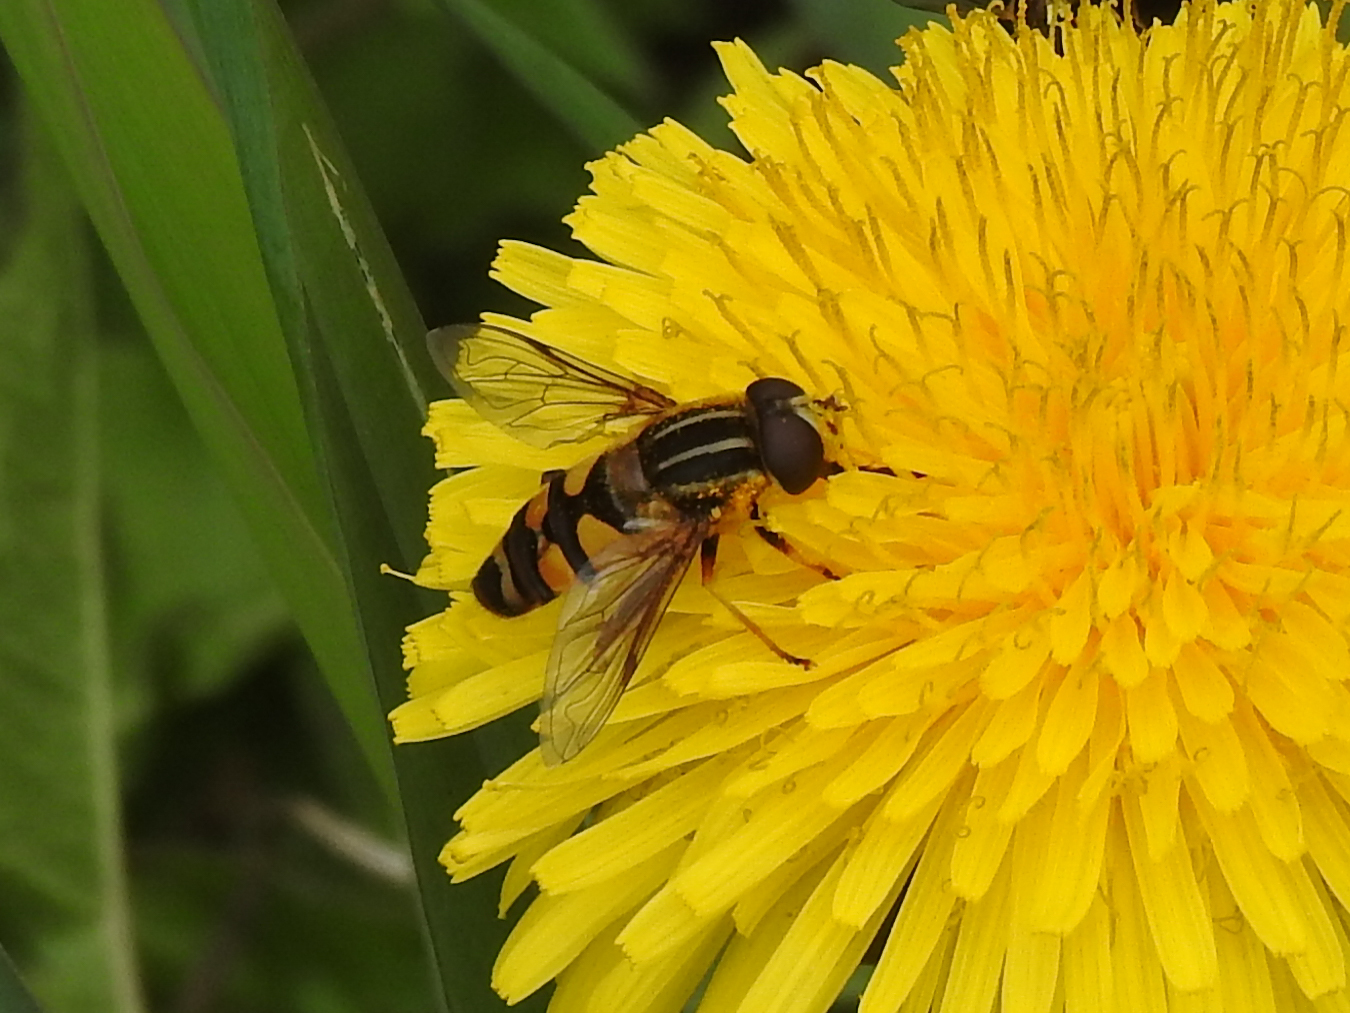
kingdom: Animalia
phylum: Arthropoda
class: Insecta
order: Diptera
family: Syrphidae
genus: Helophilus
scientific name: Helophilus fasciatus
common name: Narrow-headed marsh fly
